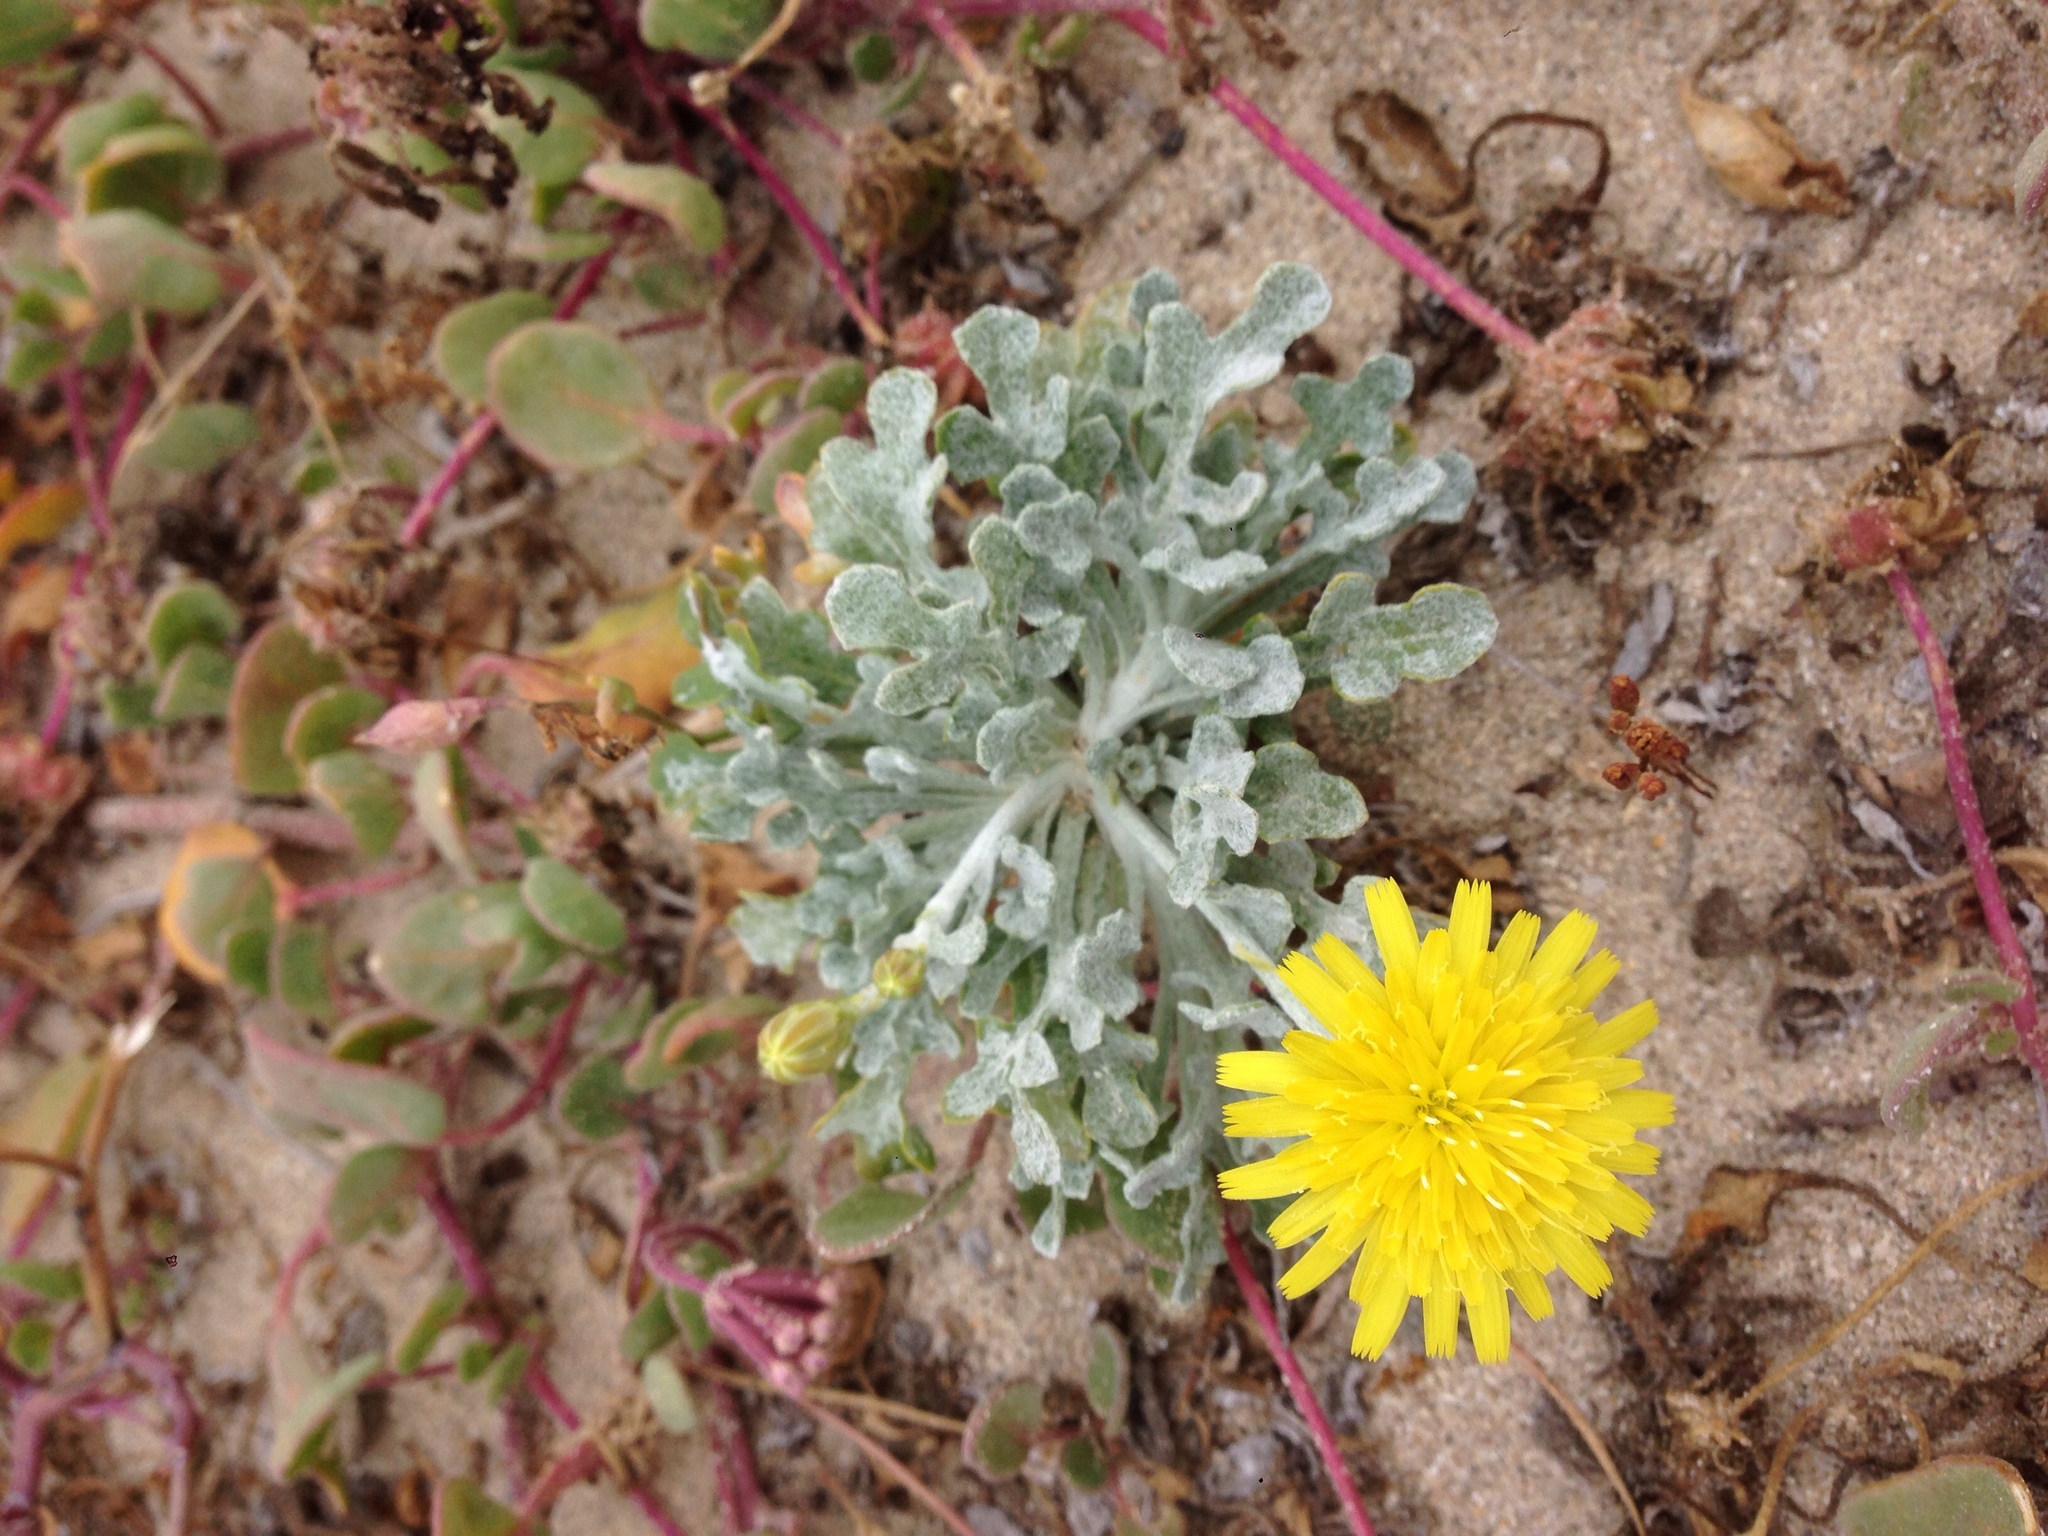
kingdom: Plantae
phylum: Tracheophyta
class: Magnoliopsida
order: Asterales
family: Asteraceae
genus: Malacothrix
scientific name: Malacothrix incana
